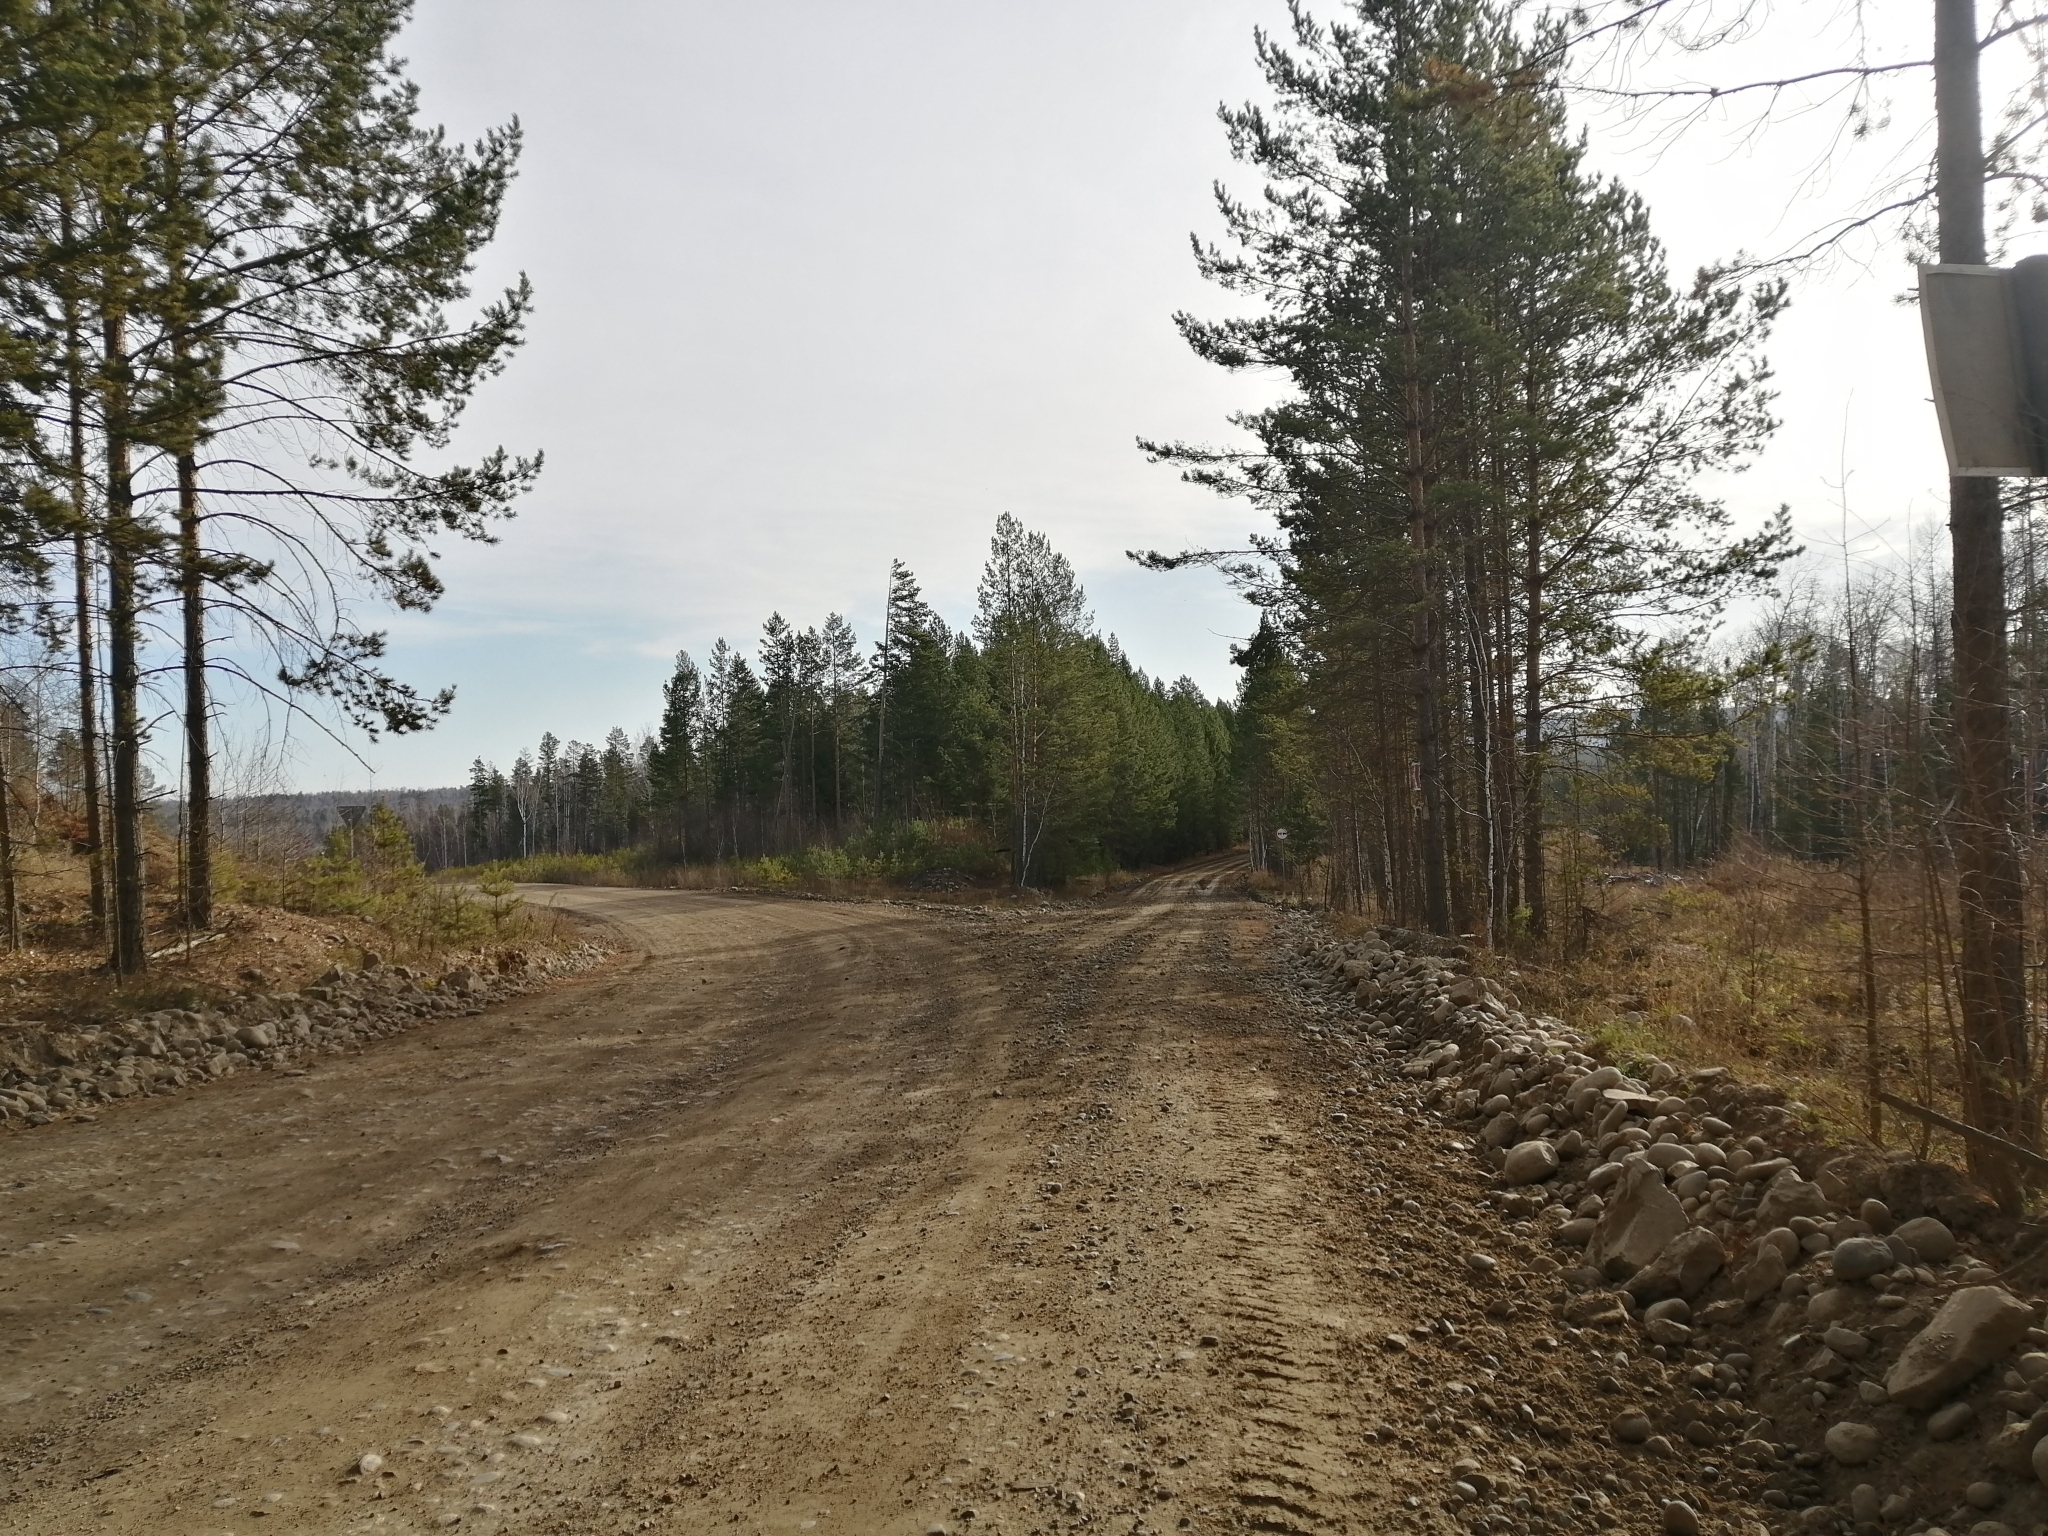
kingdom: Plantae
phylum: Tracheophyta
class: Pinopsida
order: Pinales
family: Pinaceae
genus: Pinus
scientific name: Pinus sylvestris
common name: Scots pine
